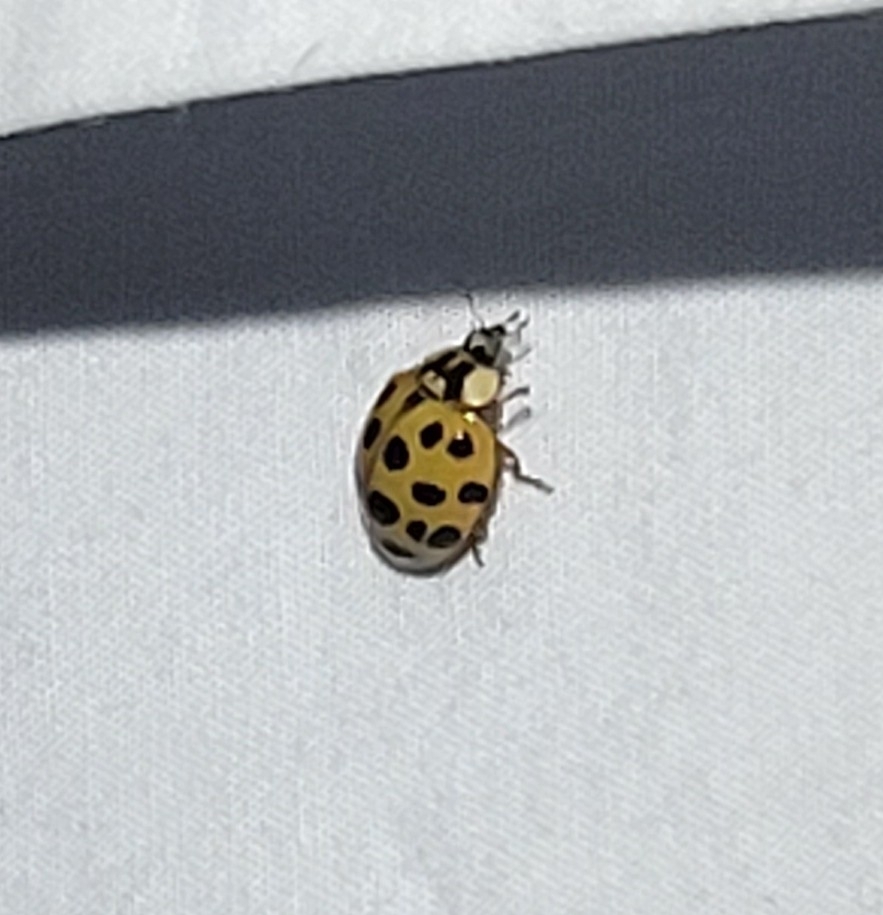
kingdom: Animalia
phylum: Arthropoda
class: Insecta
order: Coleoptera
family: Coccinellidae
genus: Harmonia
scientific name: Harmonia axyridis
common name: Harlequin ladybird
